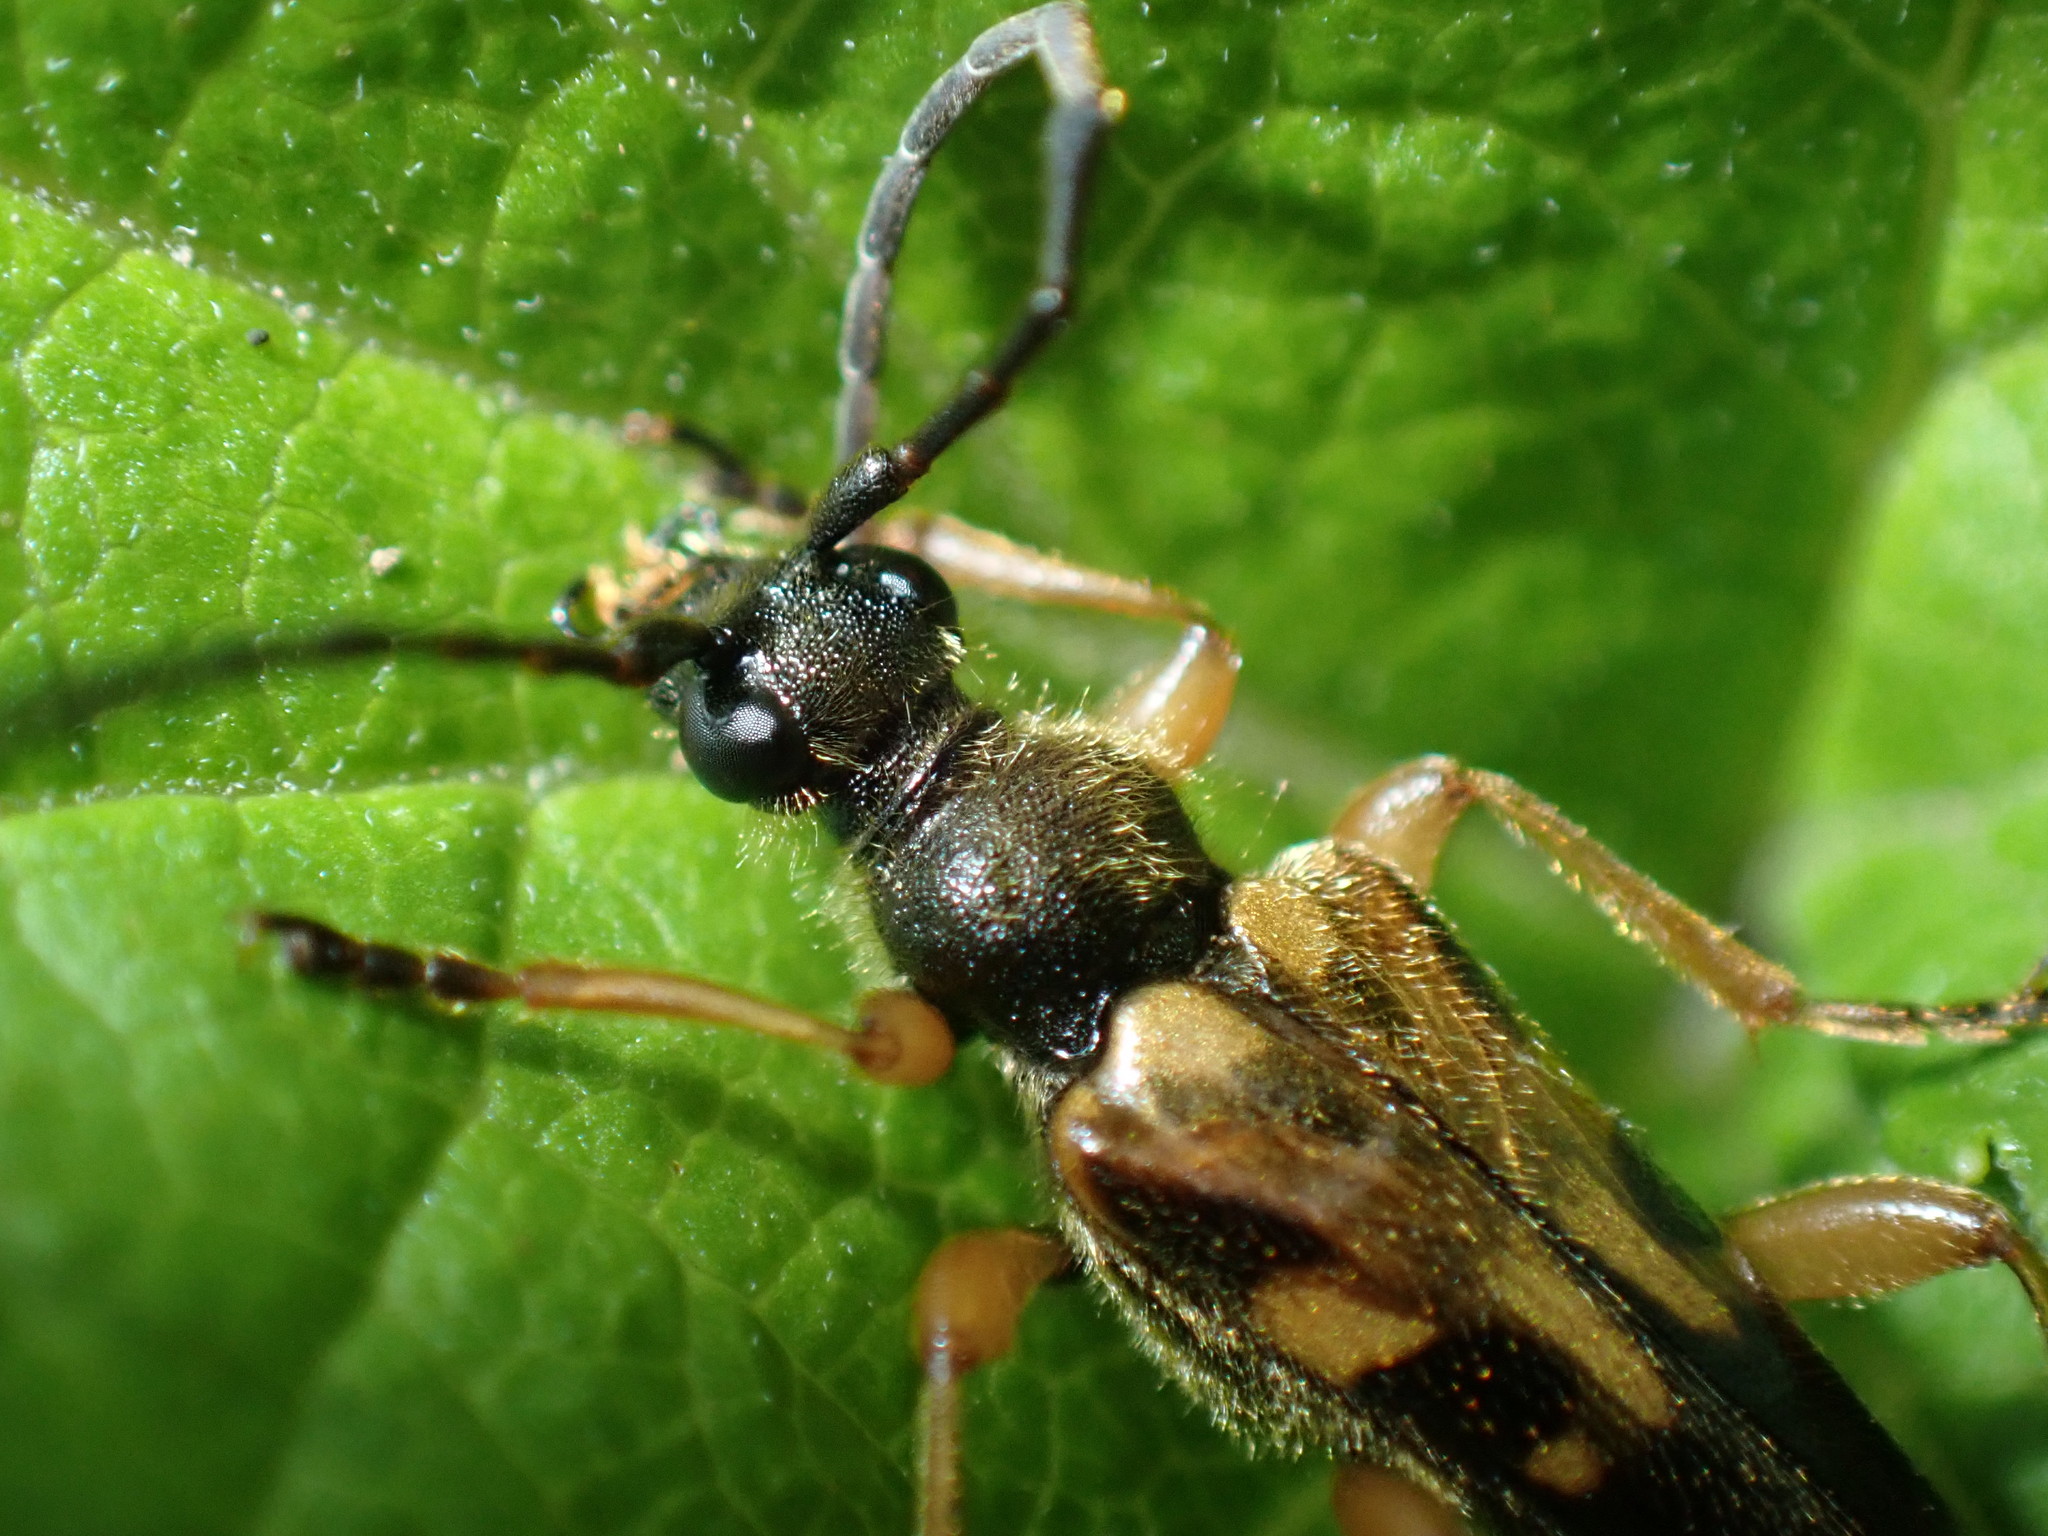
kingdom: Animalia
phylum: Arthropoda
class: Insecta
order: Coleoptera
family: Cerambycidae
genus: Xestoleptura
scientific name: Xestoleptura crassipes
